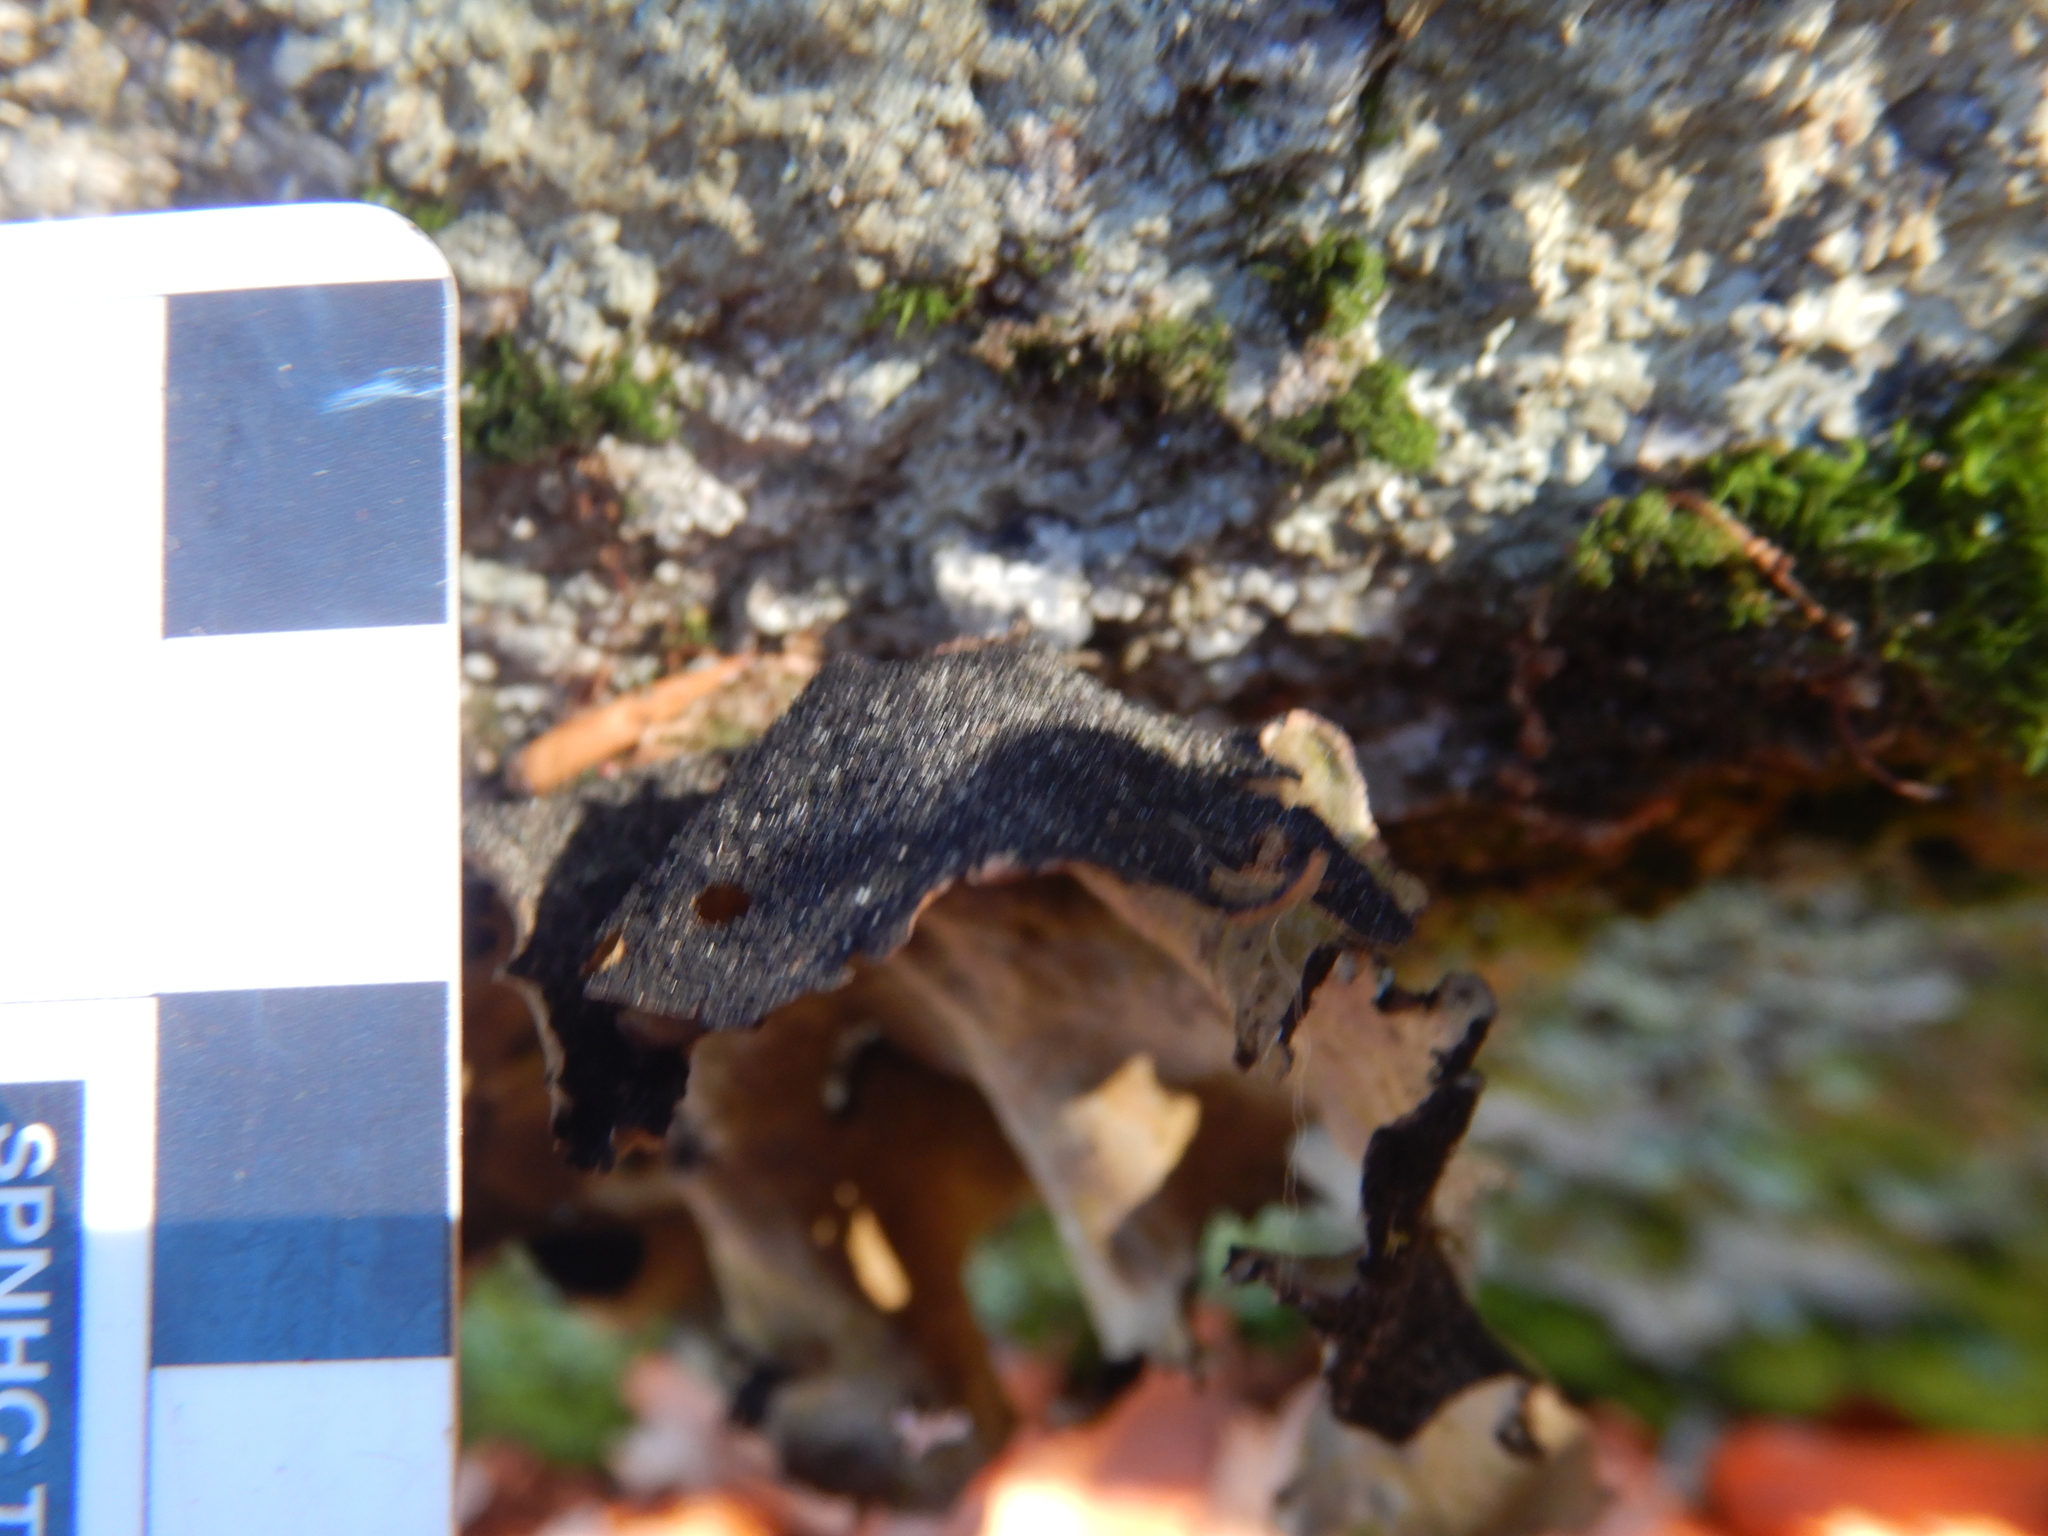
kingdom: Fungi
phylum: Ascomycota
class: Lecanoromycetes
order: Umbilicariales
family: Umbilicariaceae
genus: Umbilicaria
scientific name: Umbilicaria mammulata
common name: Smooth rock tripe
